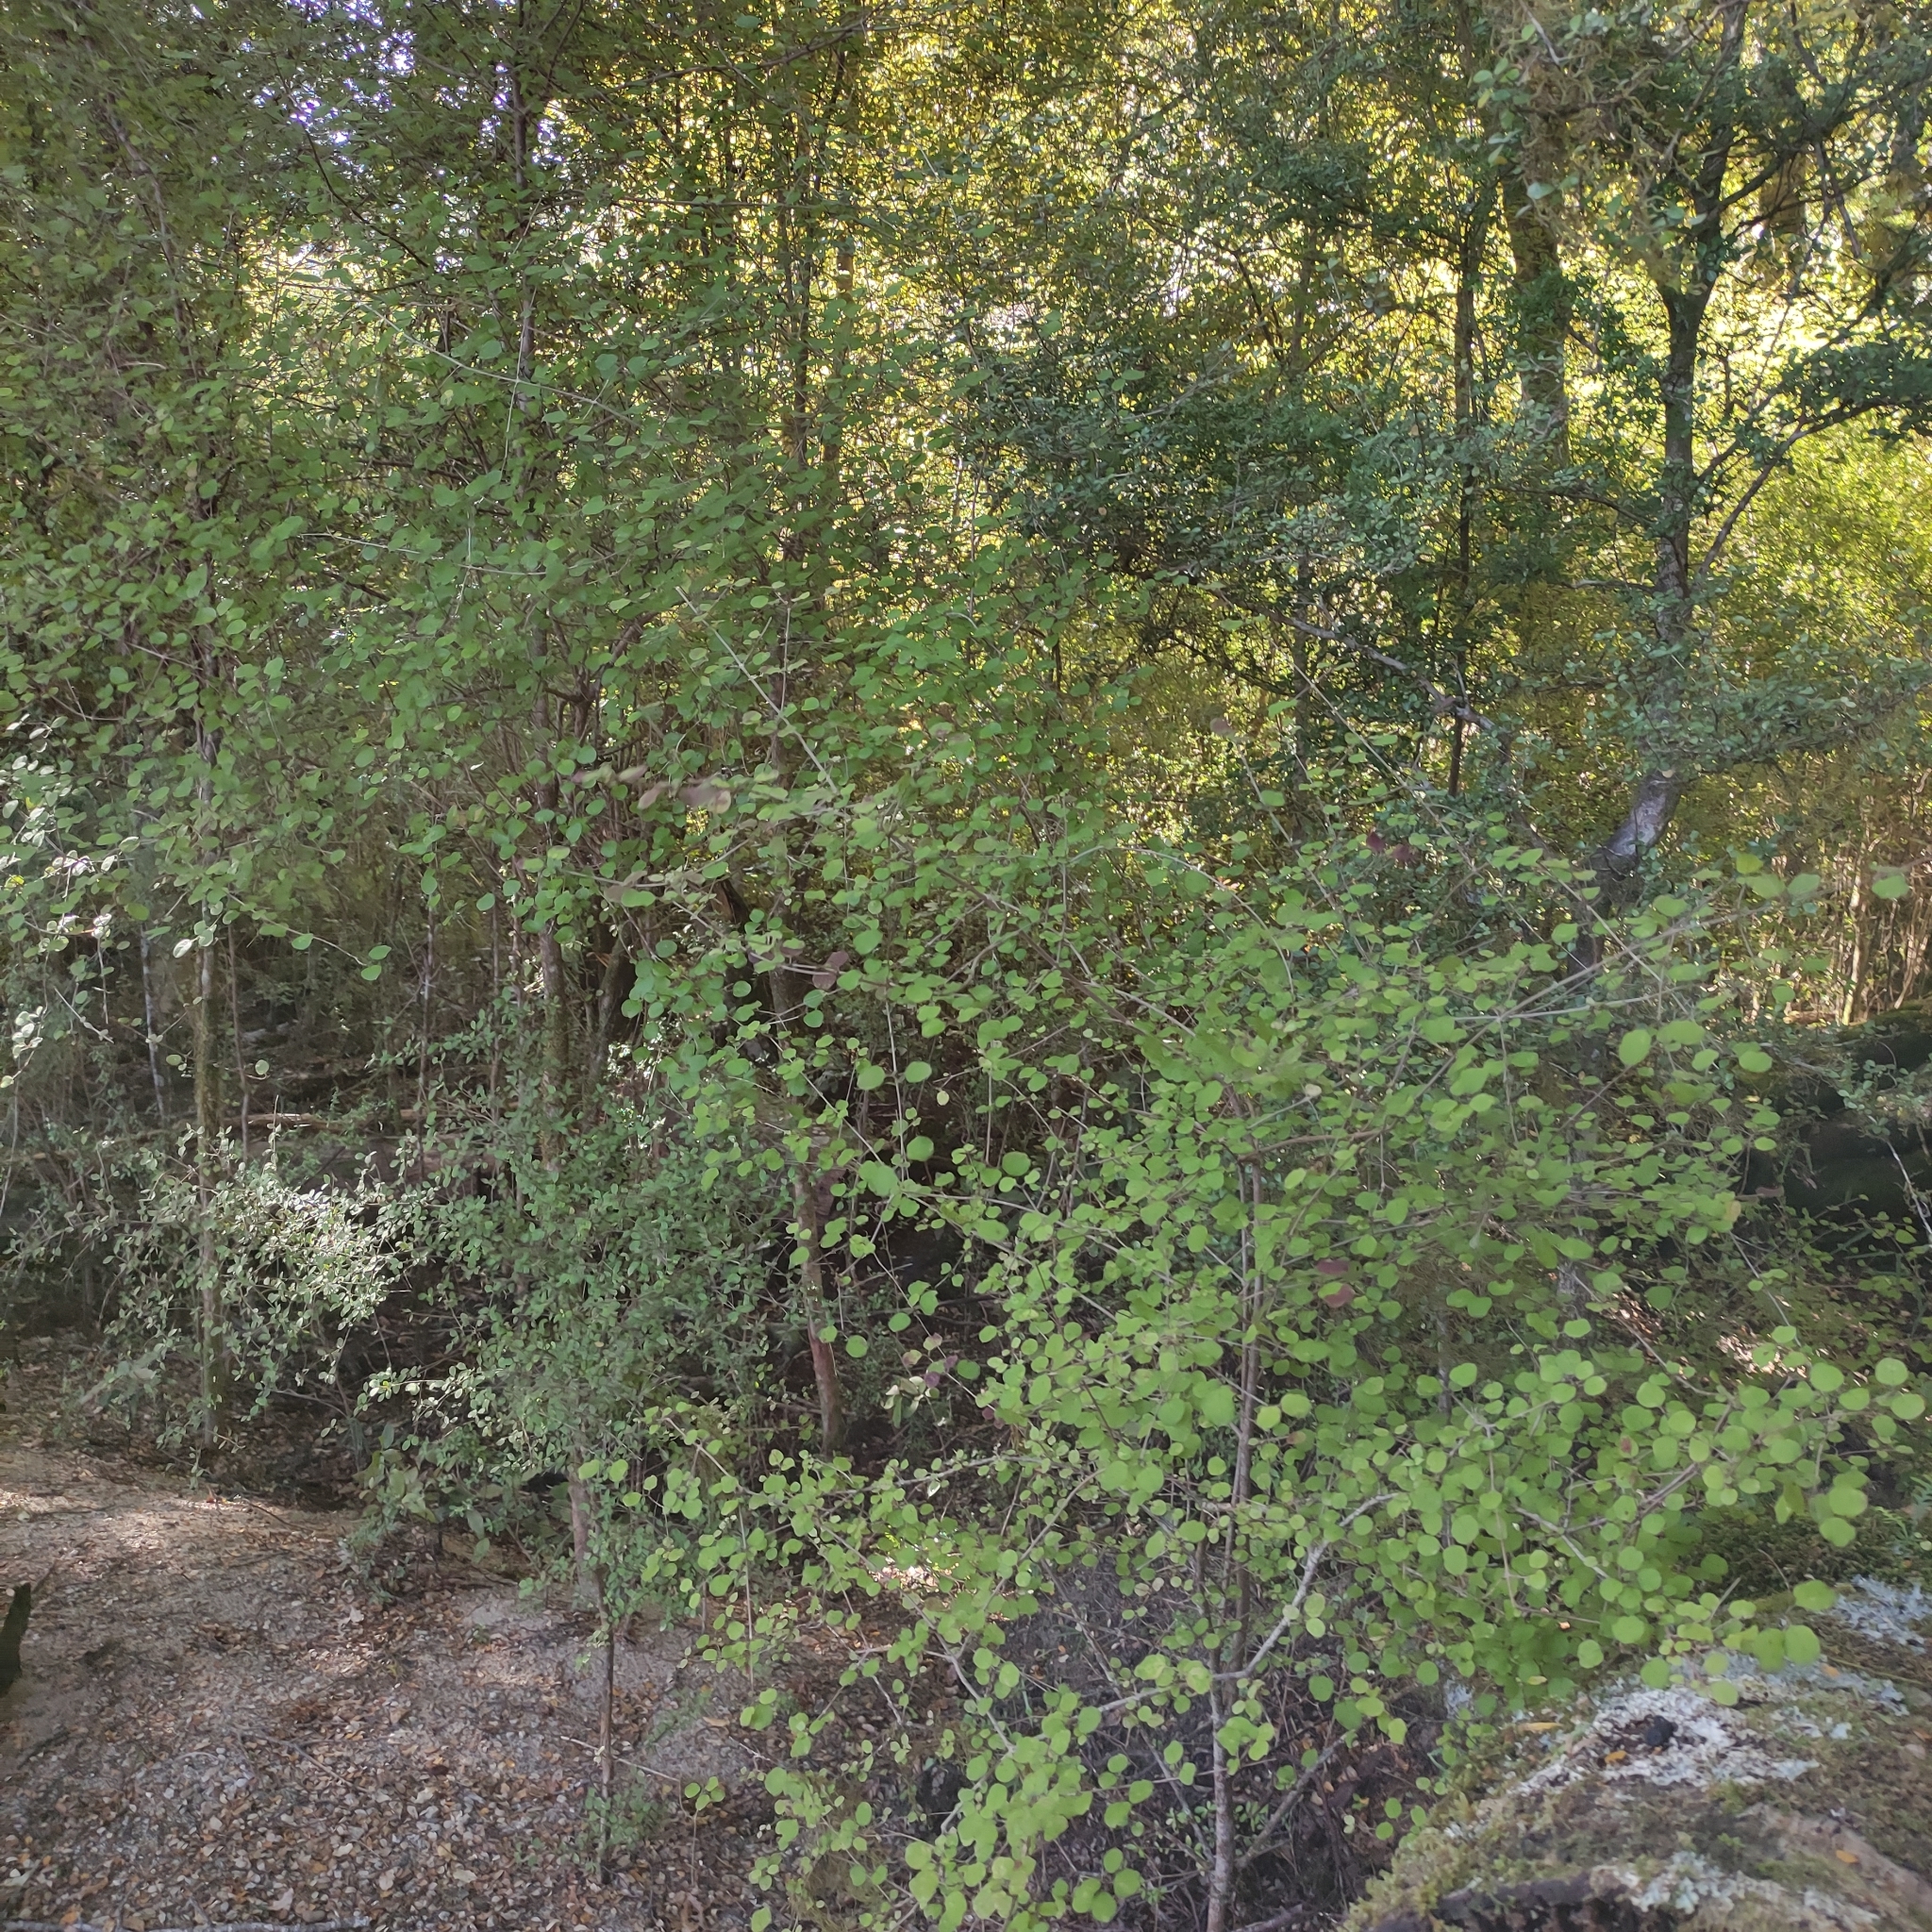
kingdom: Plantae
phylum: Tracheophyta
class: Magnoliopsida
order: Gentianales
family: Rubiaceae
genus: Coprosma
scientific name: Coprosma rotundifolia
